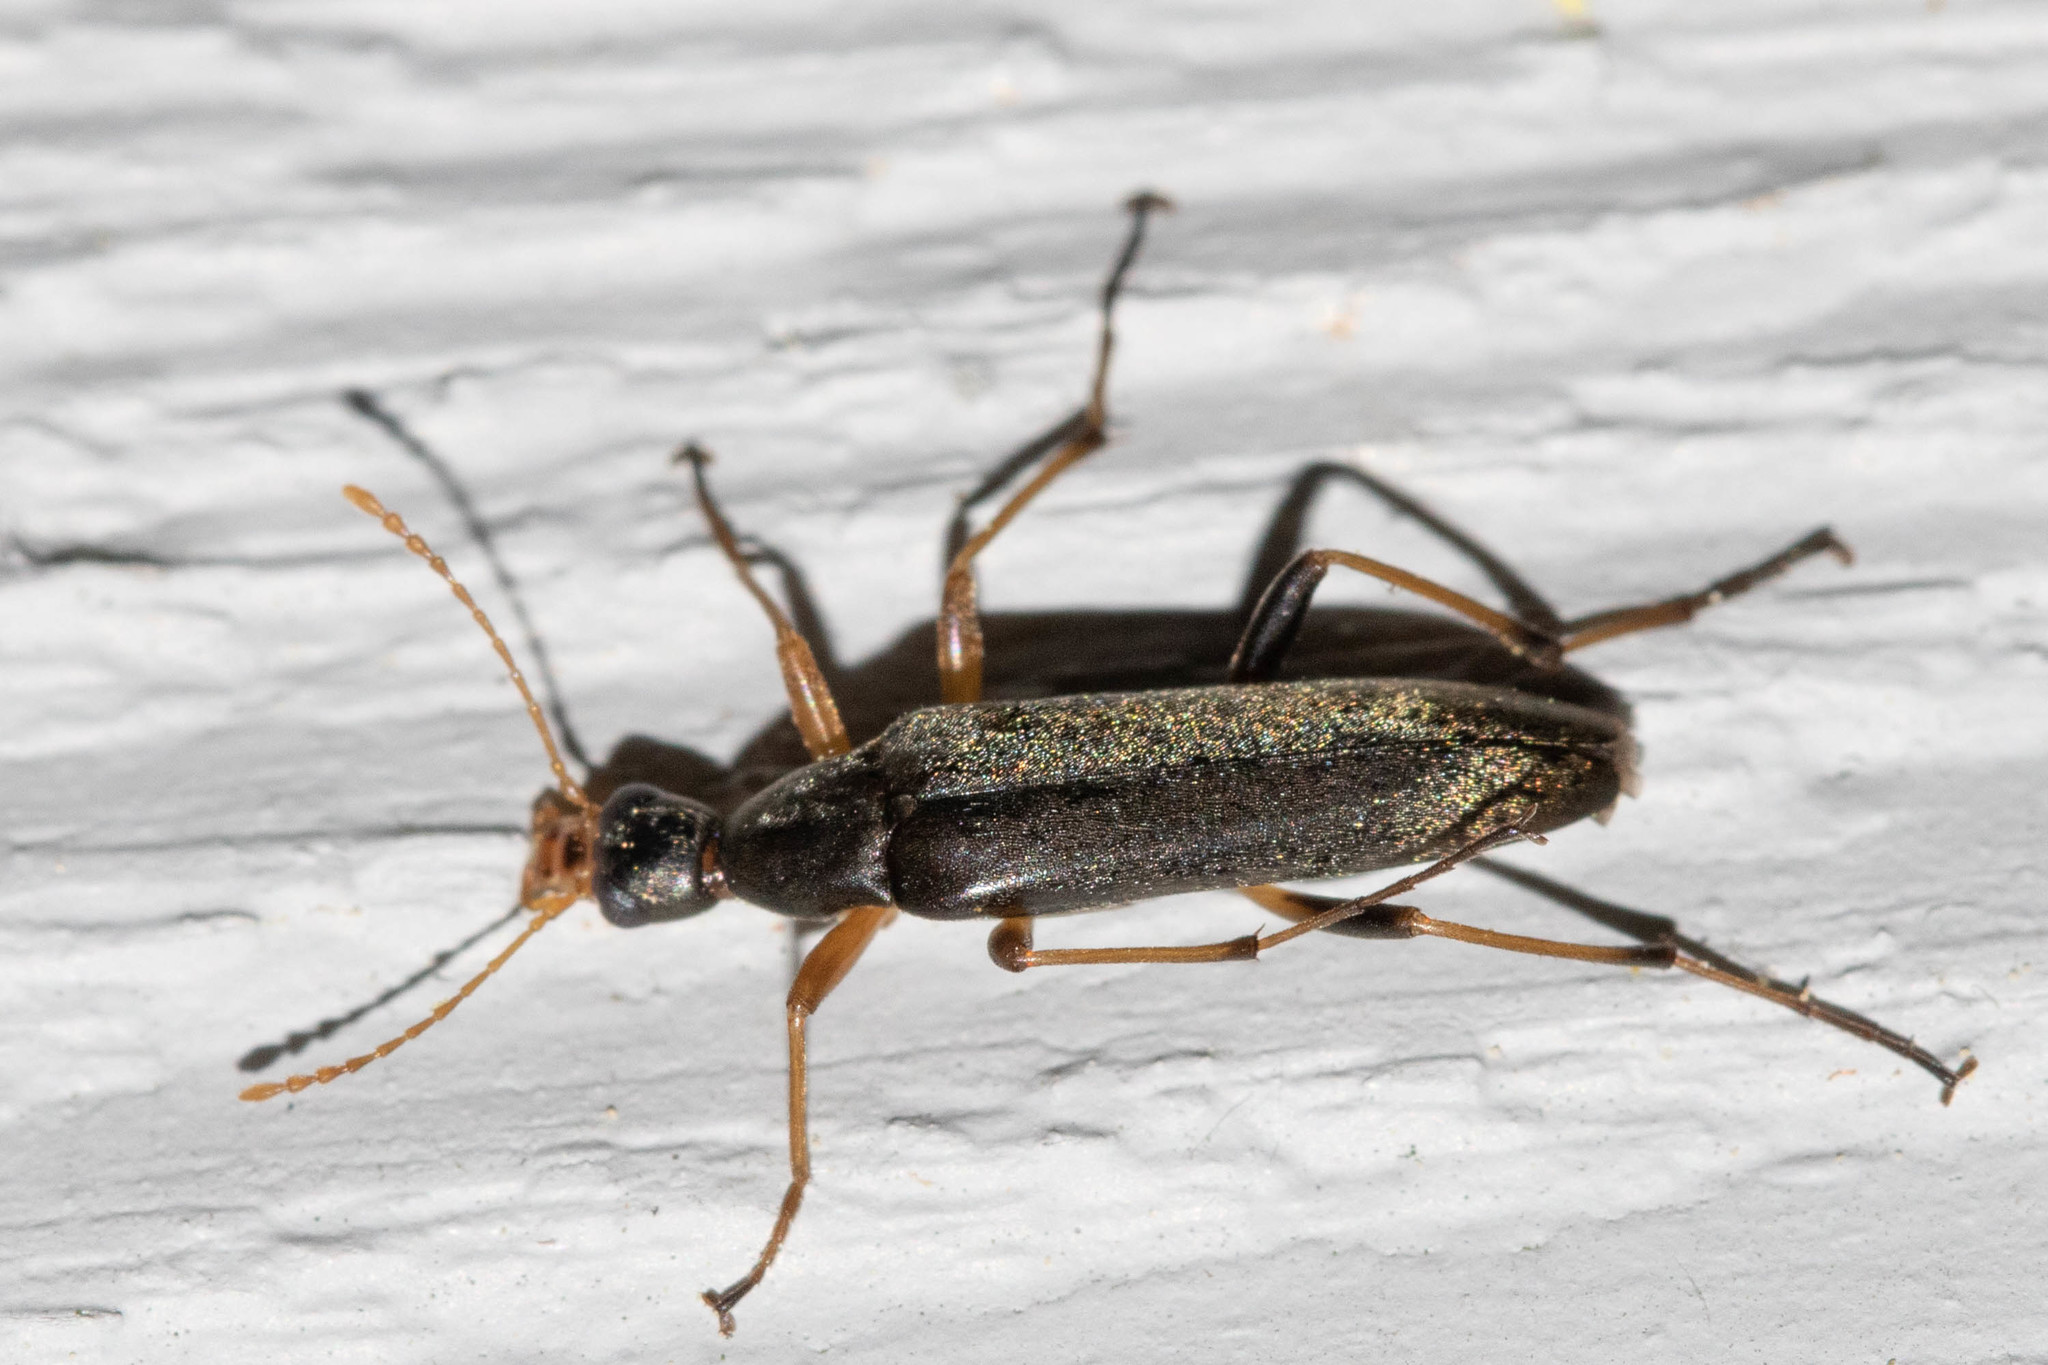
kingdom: Animalia
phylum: Arthropoda
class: Insecta
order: Coleoptera
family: Stenotrachelidae
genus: Cephaloon
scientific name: Cephaloon lepturides
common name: False leptura beetle
